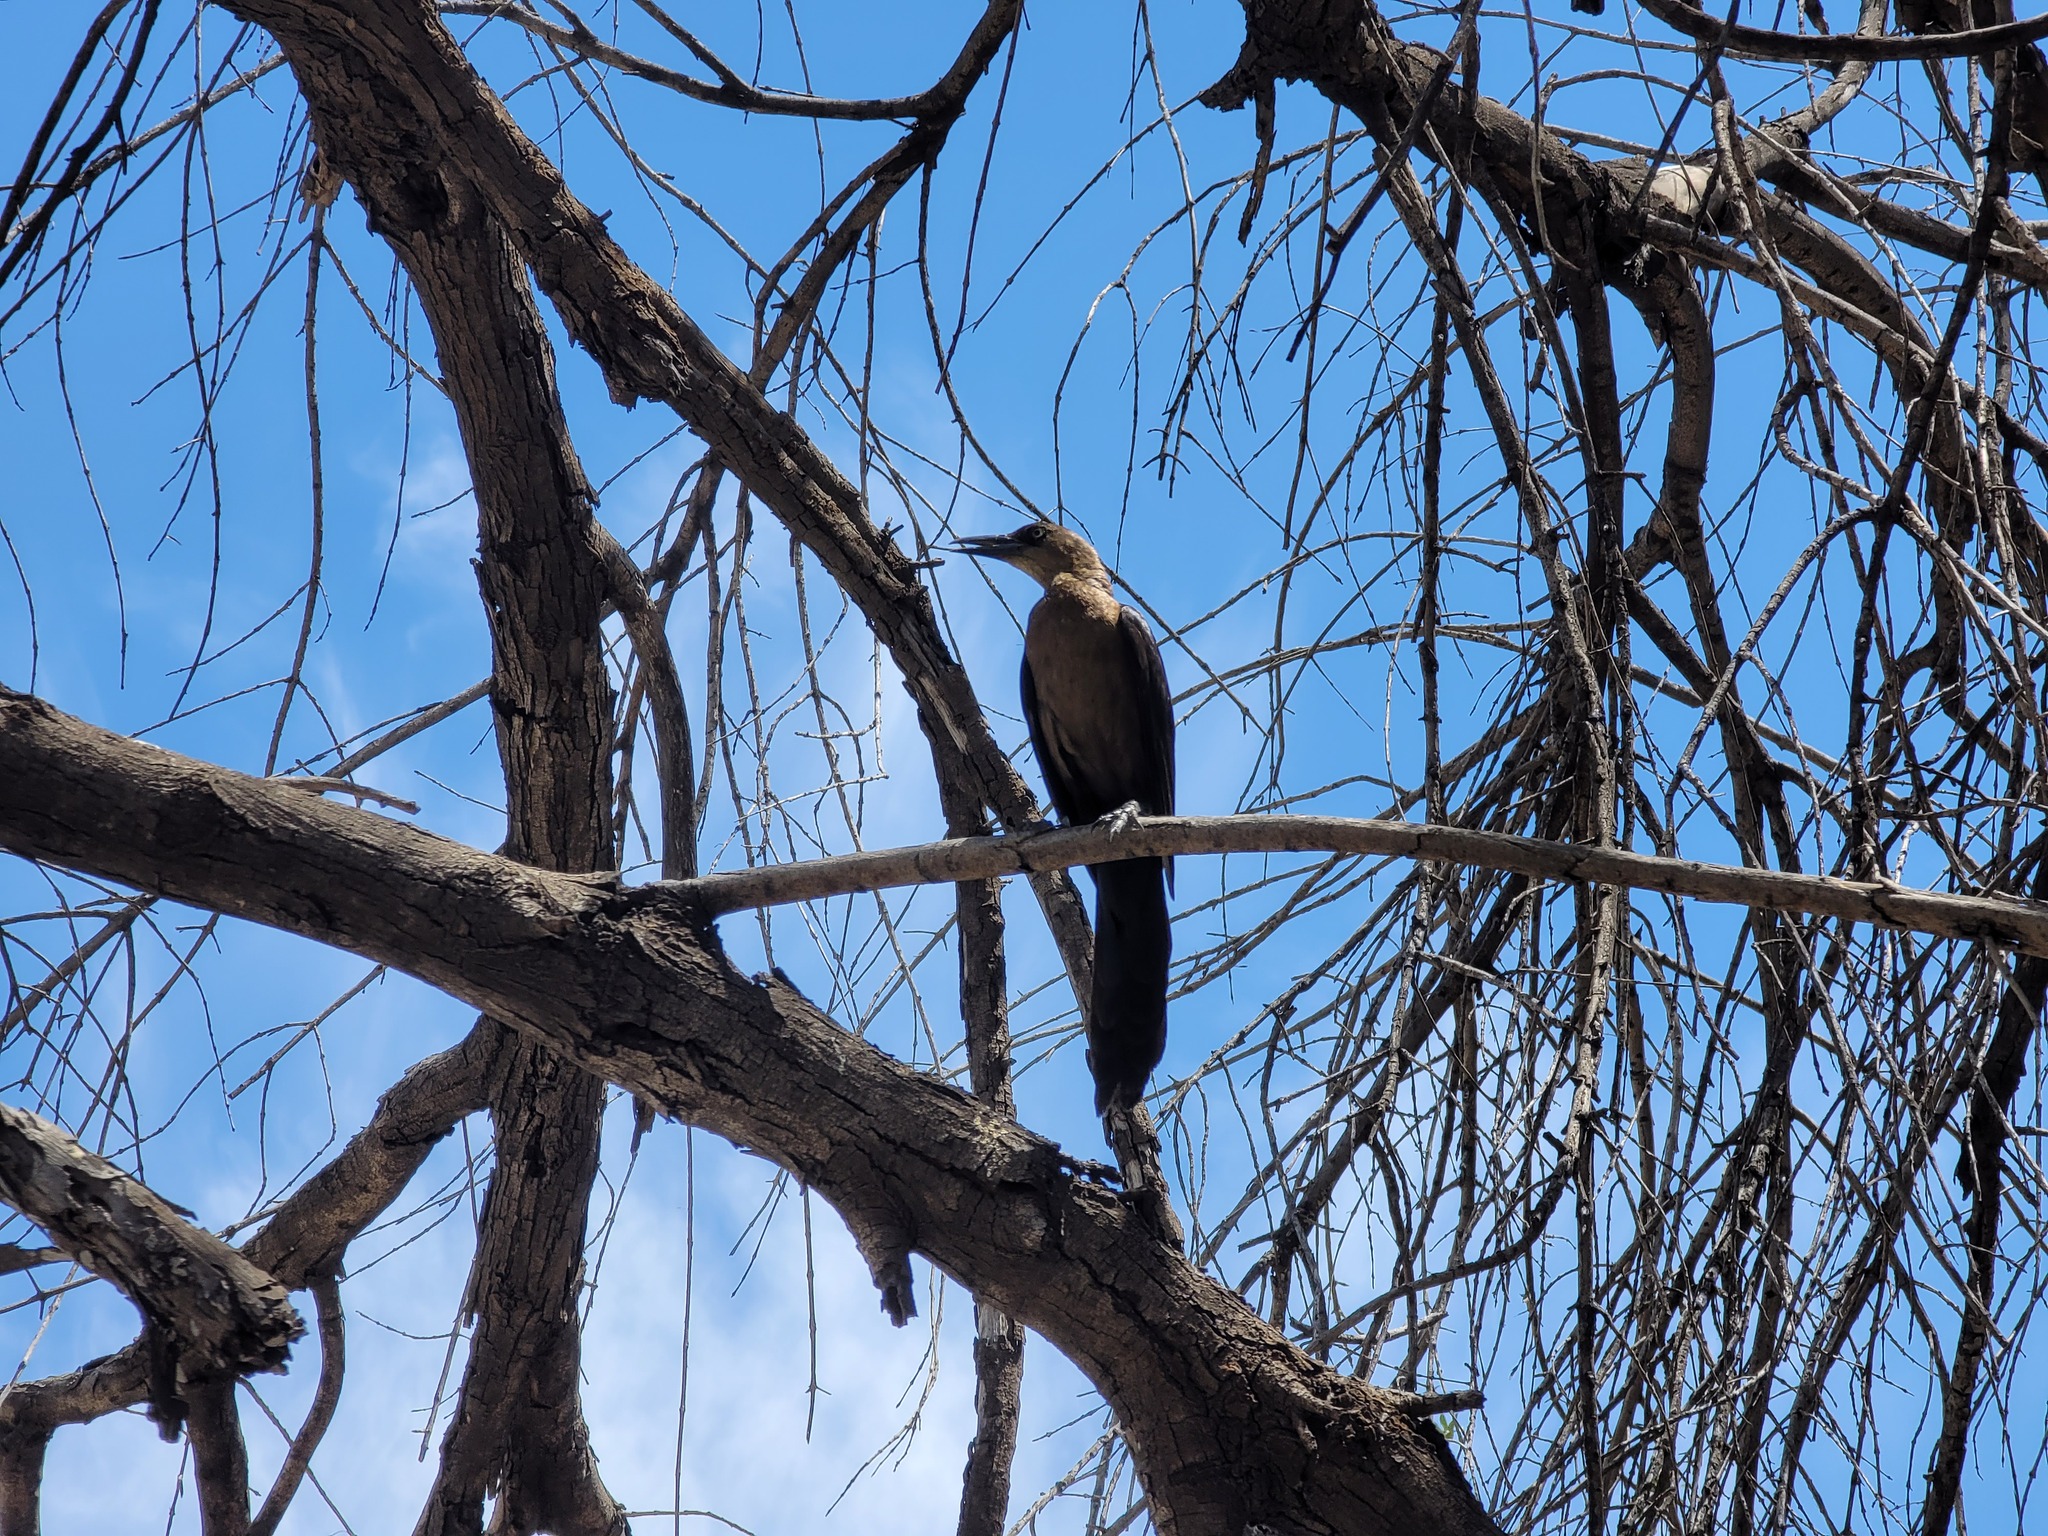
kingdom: Animalia
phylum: Chordata
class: Aves
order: Passeriformes
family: Icteridae
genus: Quiscalus
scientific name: Quiscalus mexicanus
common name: Great-tailed grackle
